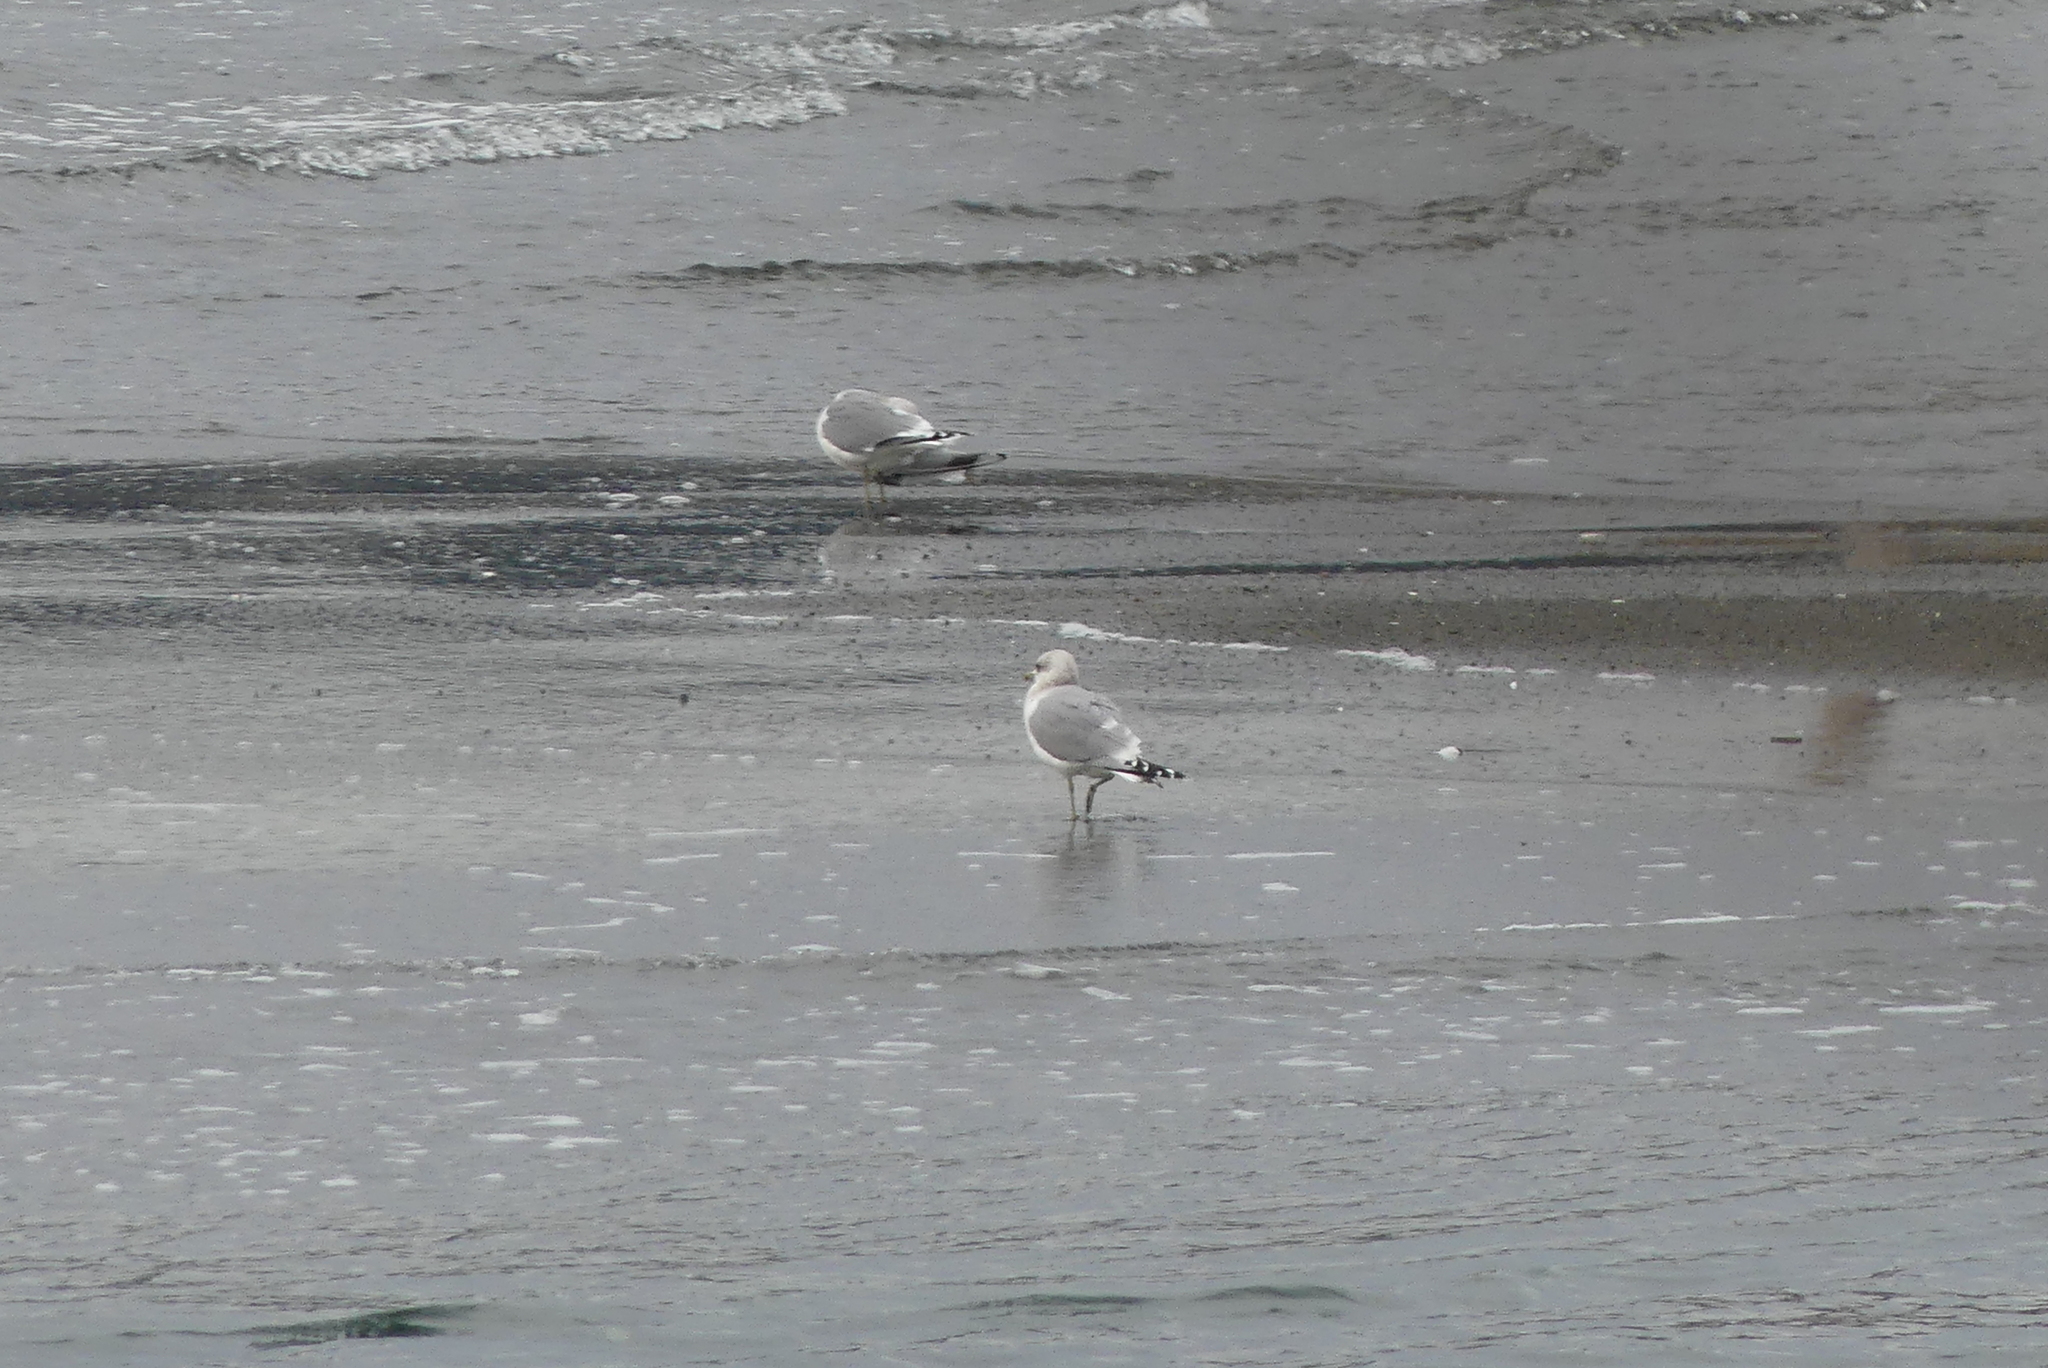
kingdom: Animalia
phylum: Chordata
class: Aves
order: Charadriiformes
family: Laridae
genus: Larus
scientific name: Larus brachyrhynchus
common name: Short-billed gull
